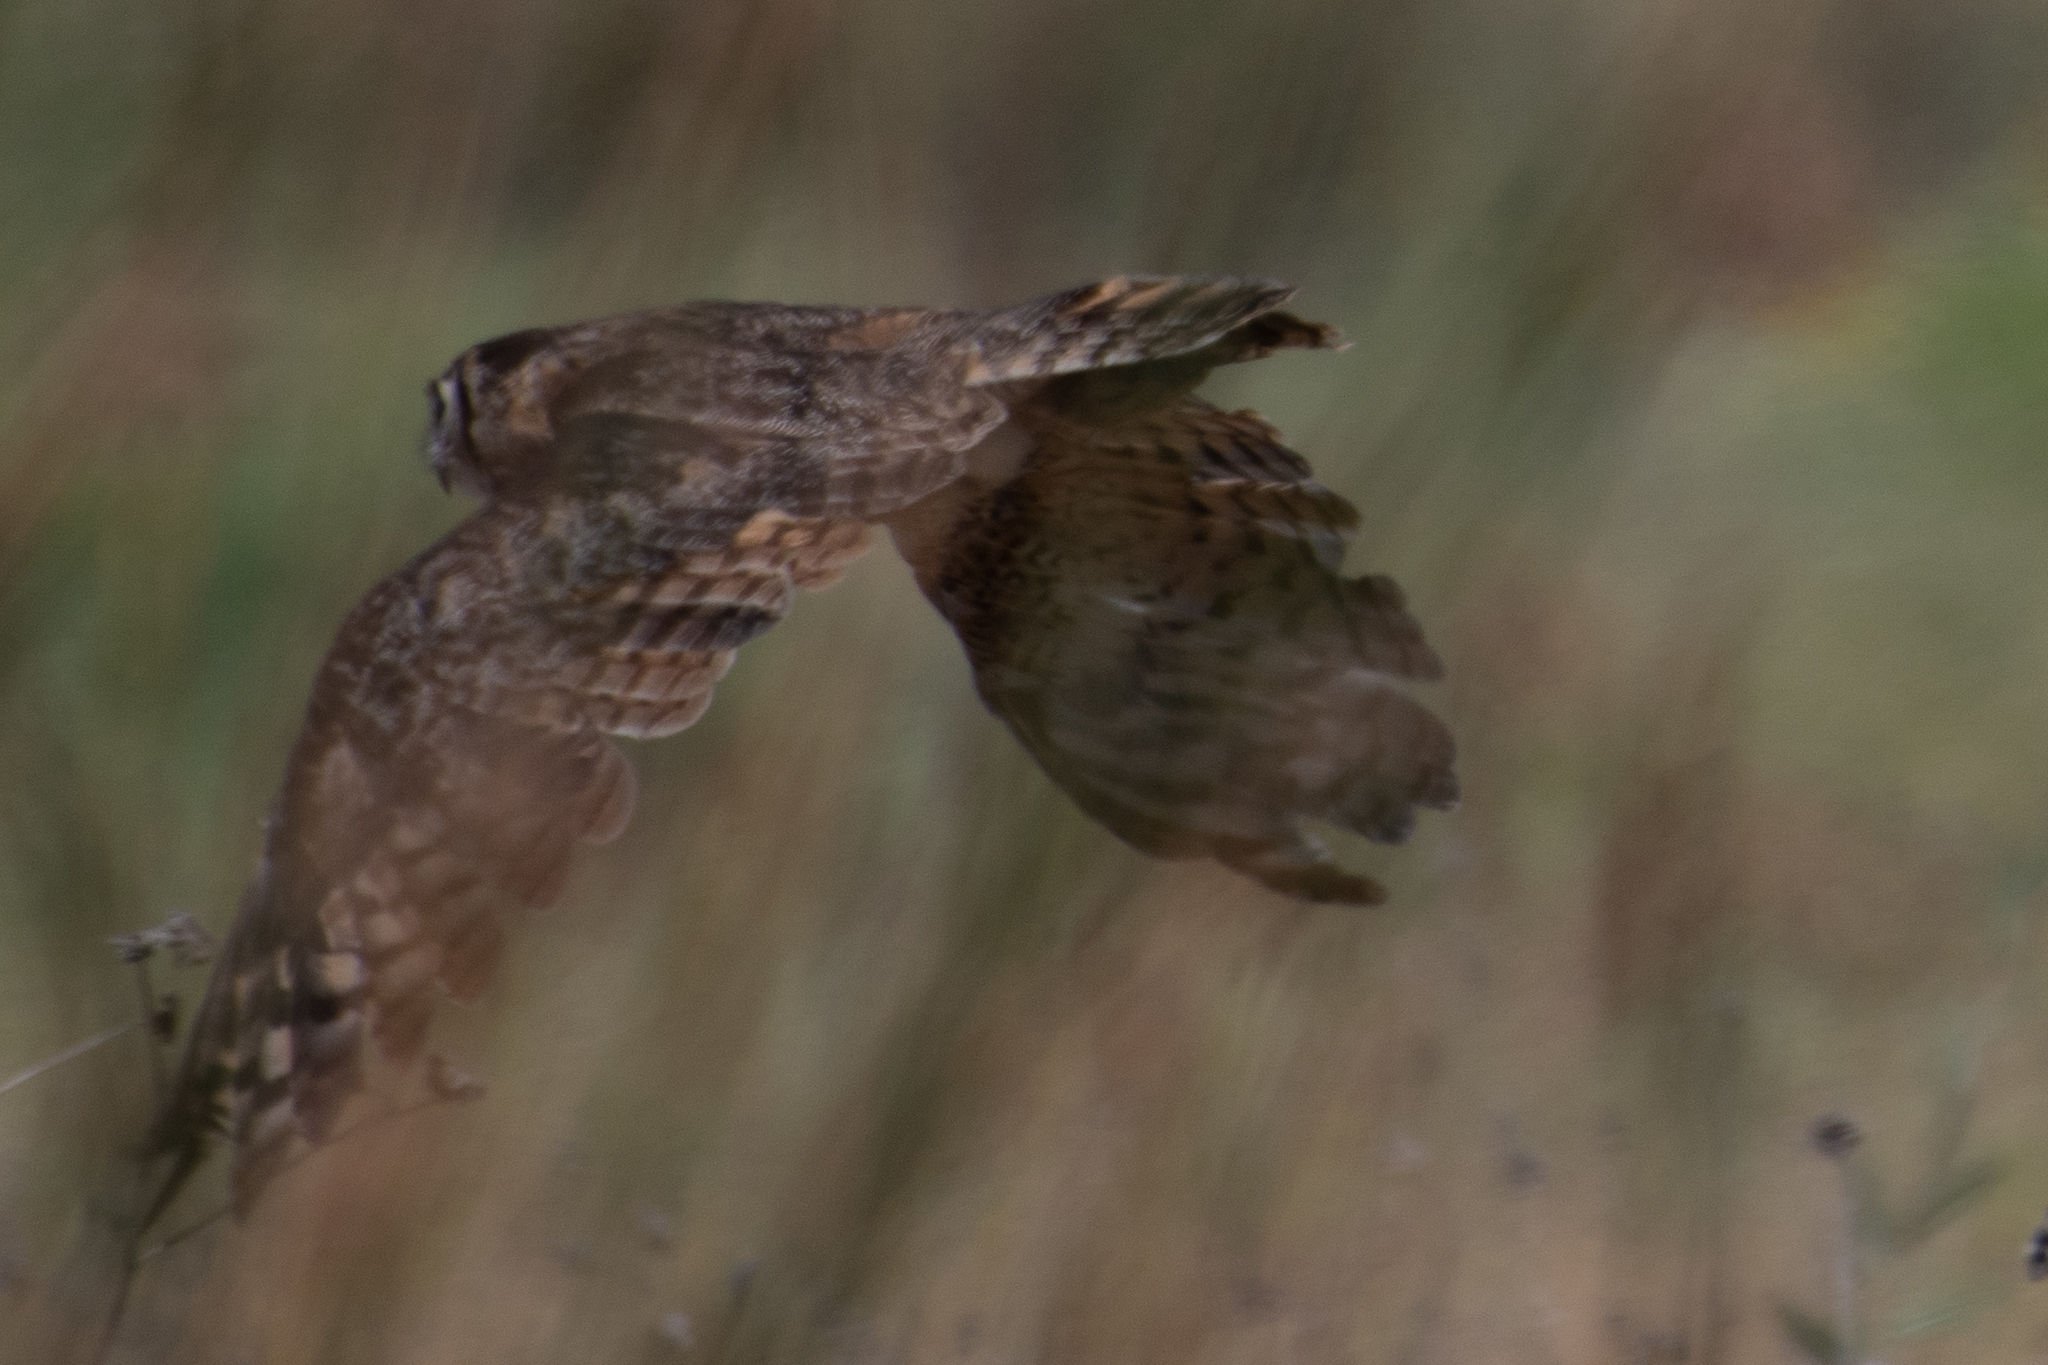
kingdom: Animalia
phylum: Chordata
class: Aves
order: Strigiformes
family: Strigidae
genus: Bubo
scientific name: Bubo virginianus
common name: Great horned owl
